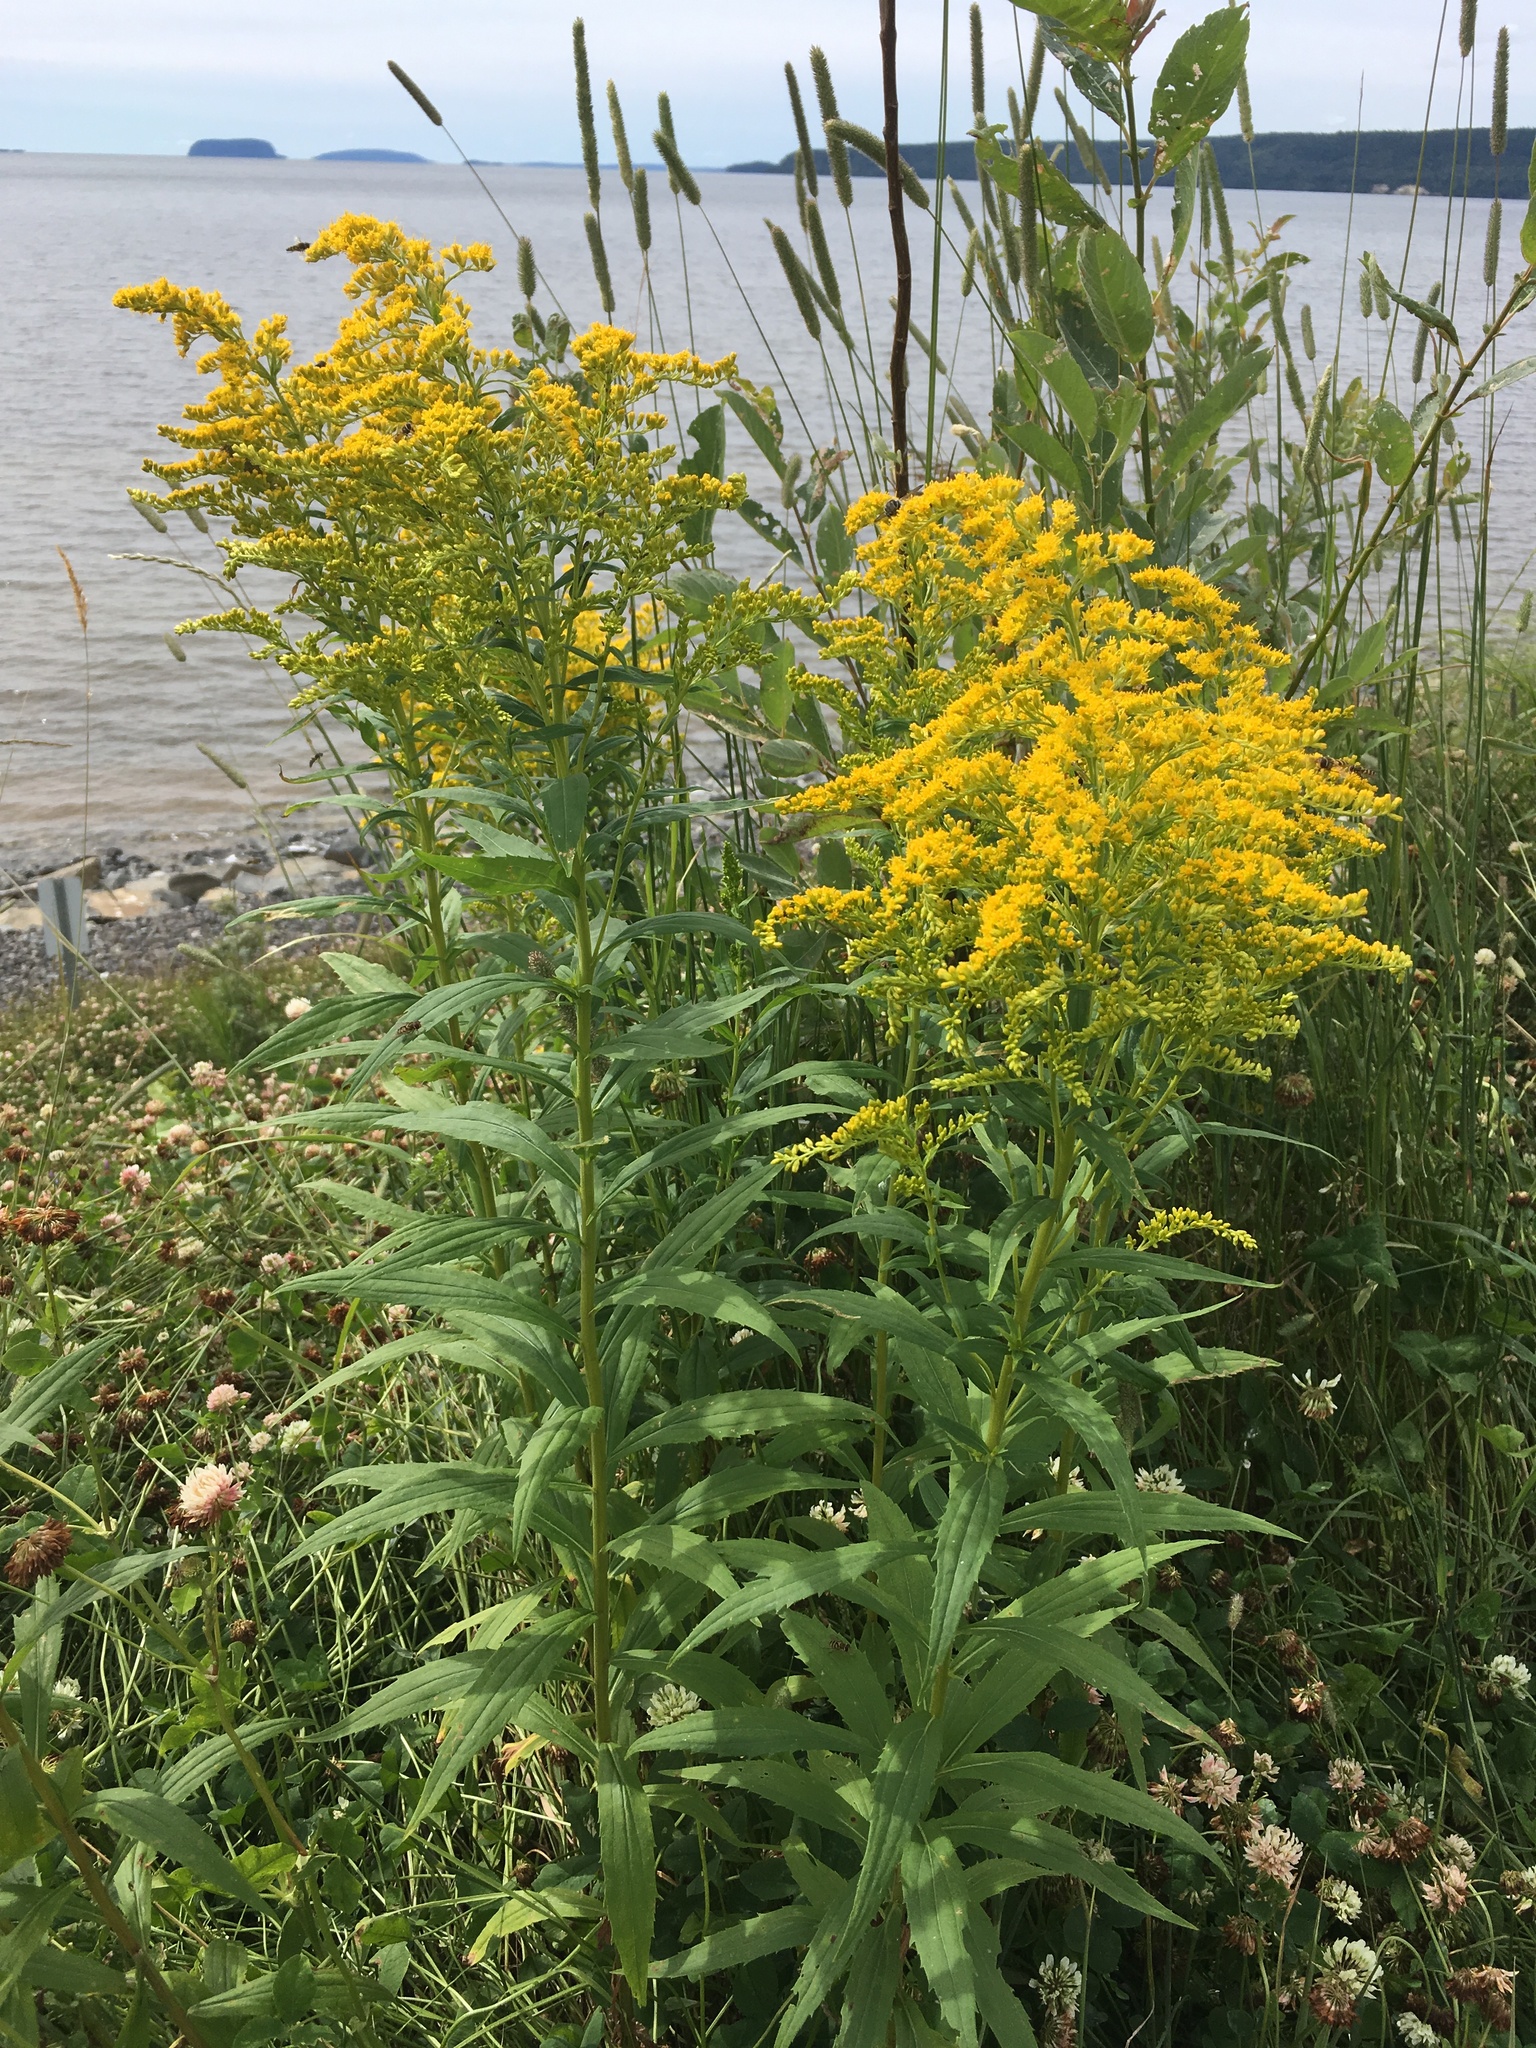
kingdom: Plantae
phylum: Tracheophyta
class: Magnoliopsida
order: Asterales
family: Asteraceae
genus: Solidago
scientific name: Solidago canadensis
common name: Canada goldenrod
